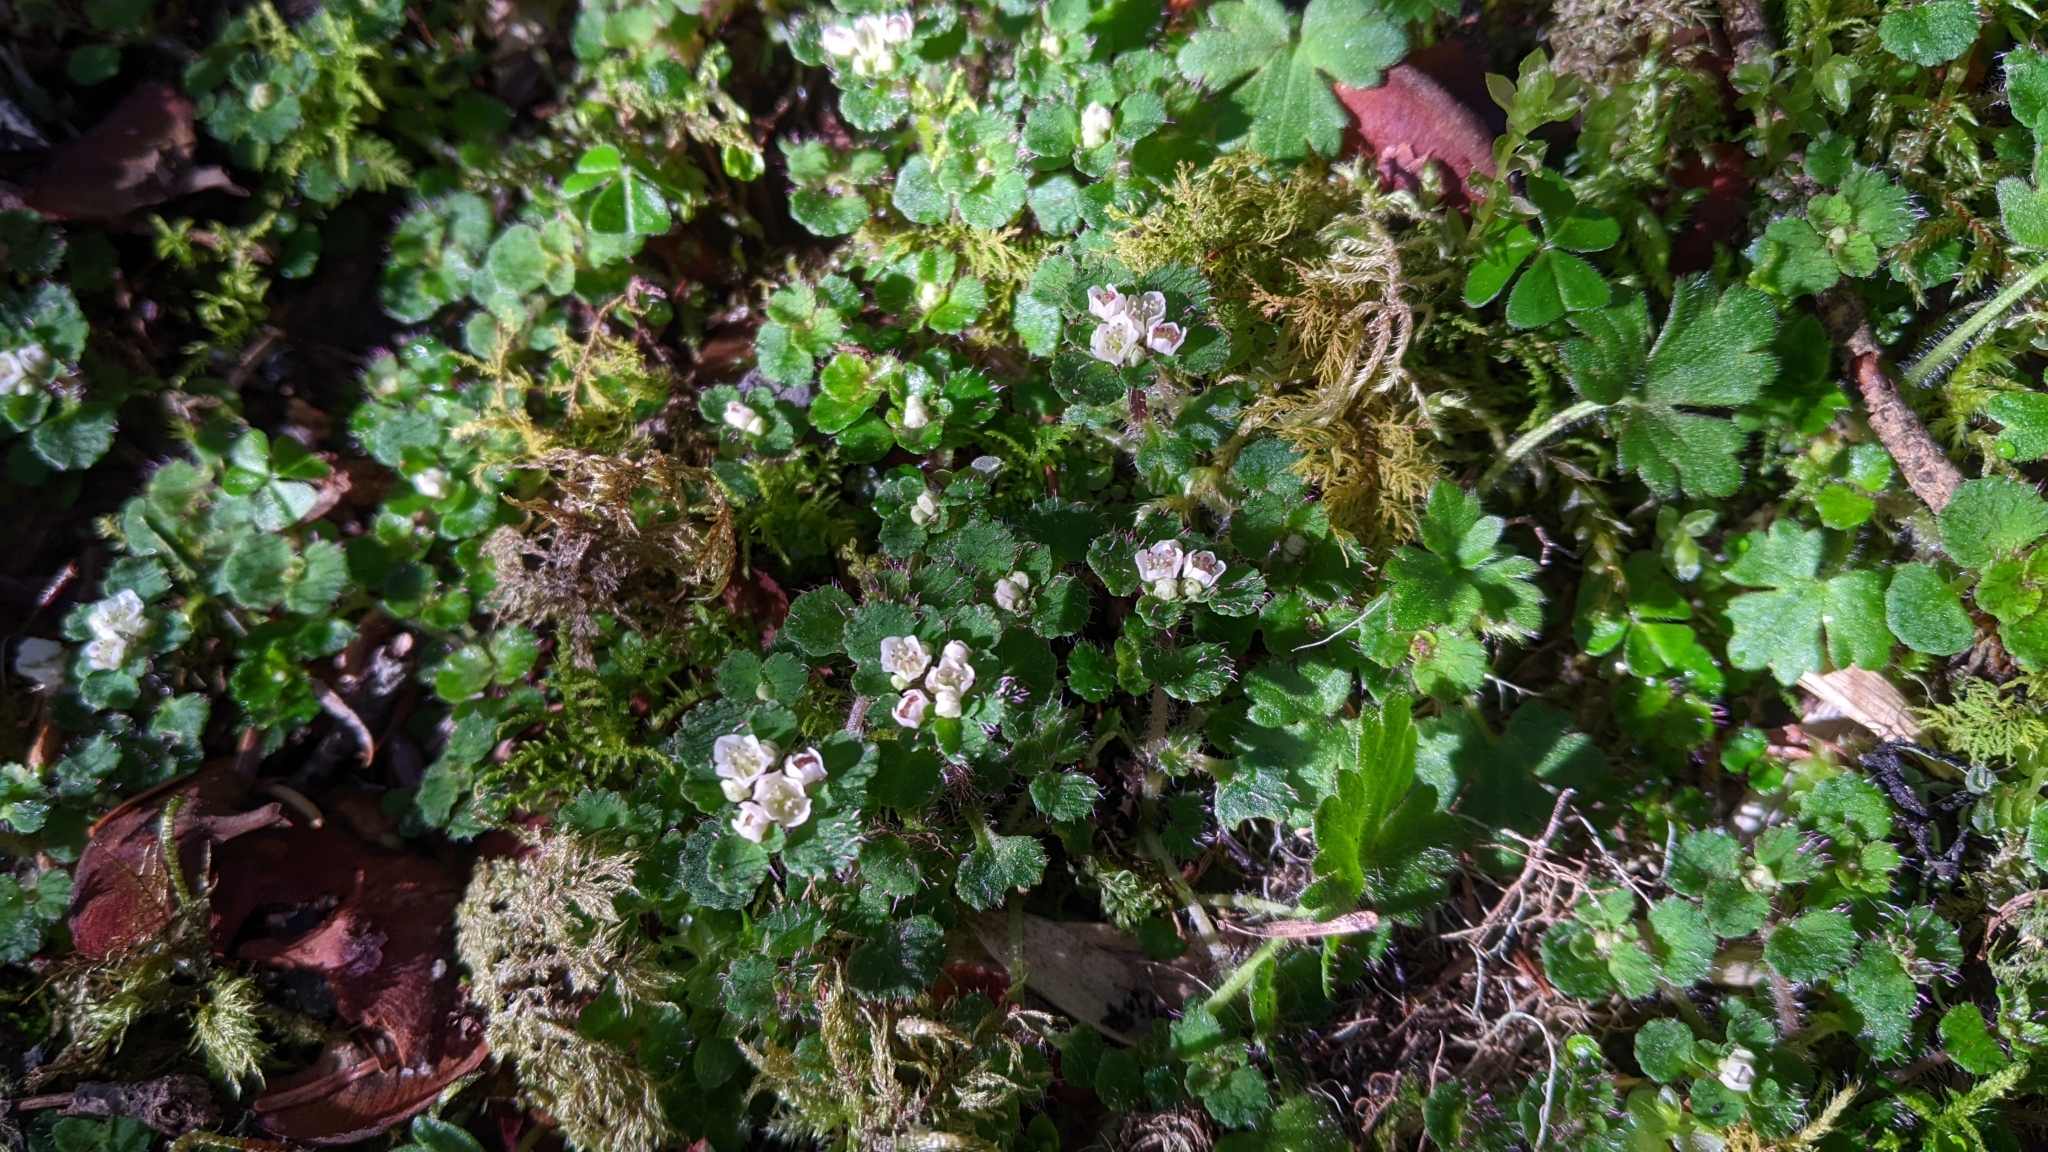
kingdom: Plantae
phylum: Tracheophyta
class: Magnoliopsida
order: Saxifragales
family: Saxifragaceae
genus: Chrysosplenium
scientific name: Chrysosplenium hebetatum
